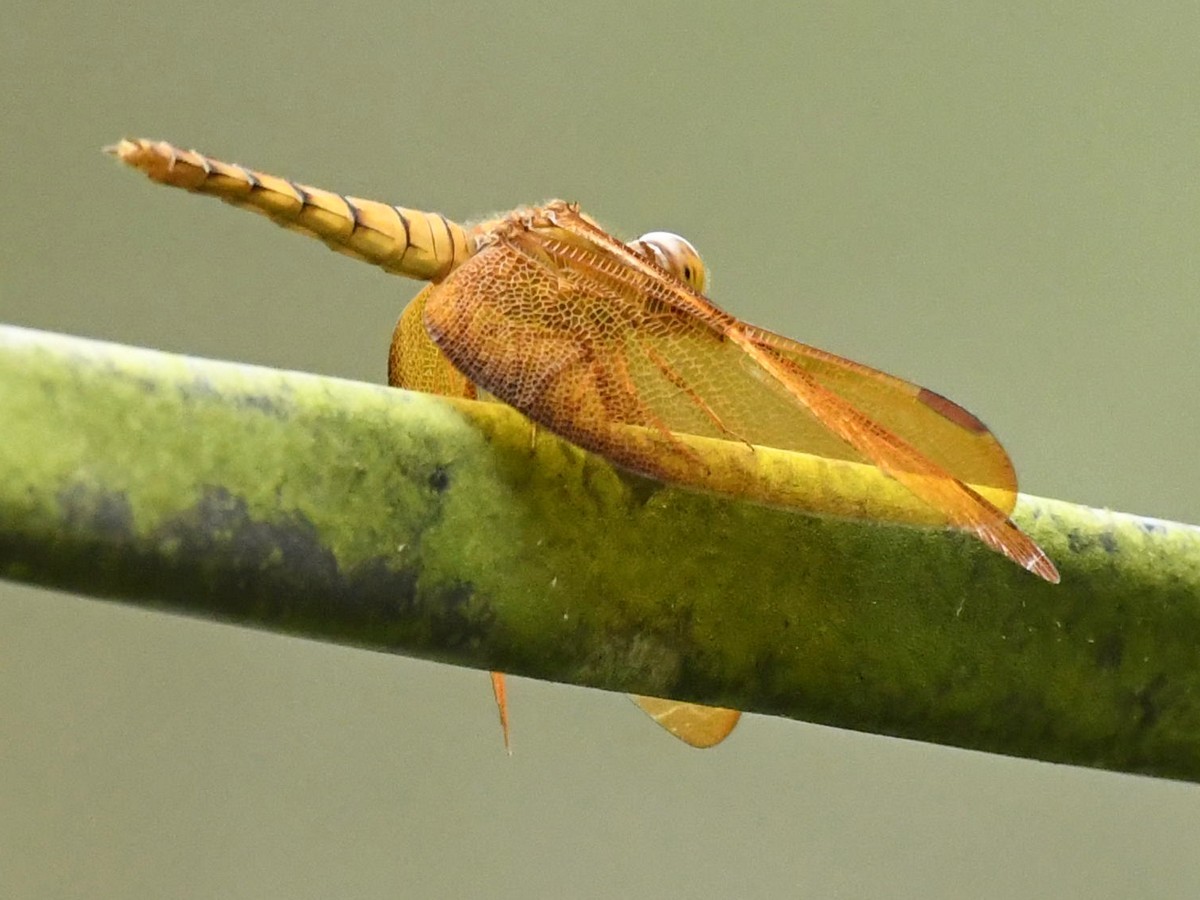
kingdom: Animalia
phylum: Arthropoda
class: Insecta
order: Odonata
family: Libellulidae
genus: Neurothemis
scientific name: Neurothemis fulvia
